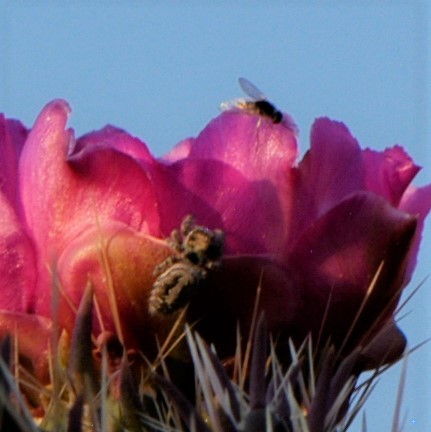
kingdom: Animalia
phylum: Arthropoda
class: Arachnida
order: Araneae
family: Salticidae
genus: Phidippus
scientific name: Phidippus comatus
